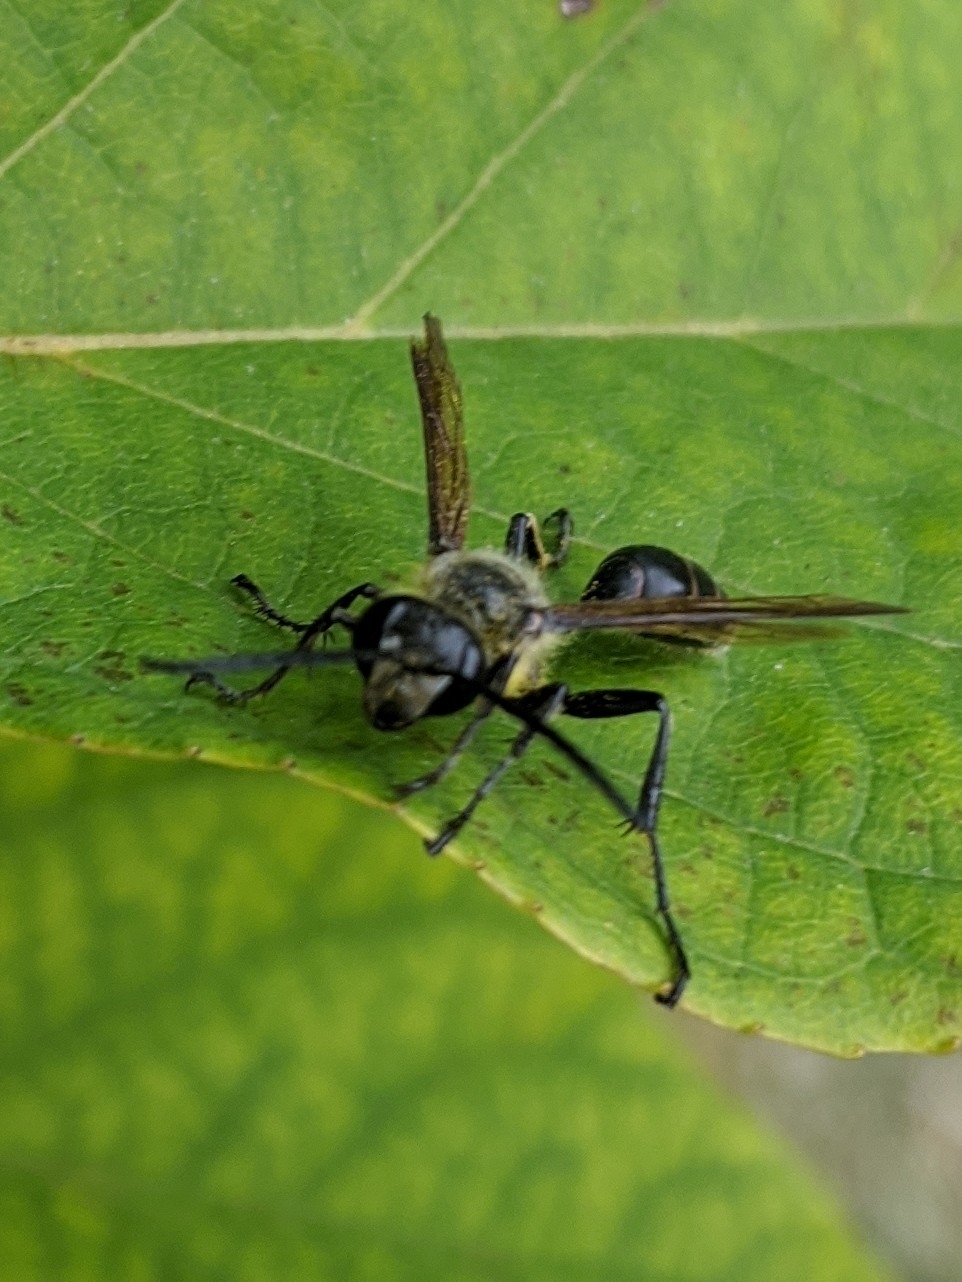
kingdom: Animalia
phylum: Arthropoda
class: Insecta
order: Hymenoptera
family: Sphecidae
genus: Isodontia
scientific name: Isodontia mexicana
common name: Mud dauber
